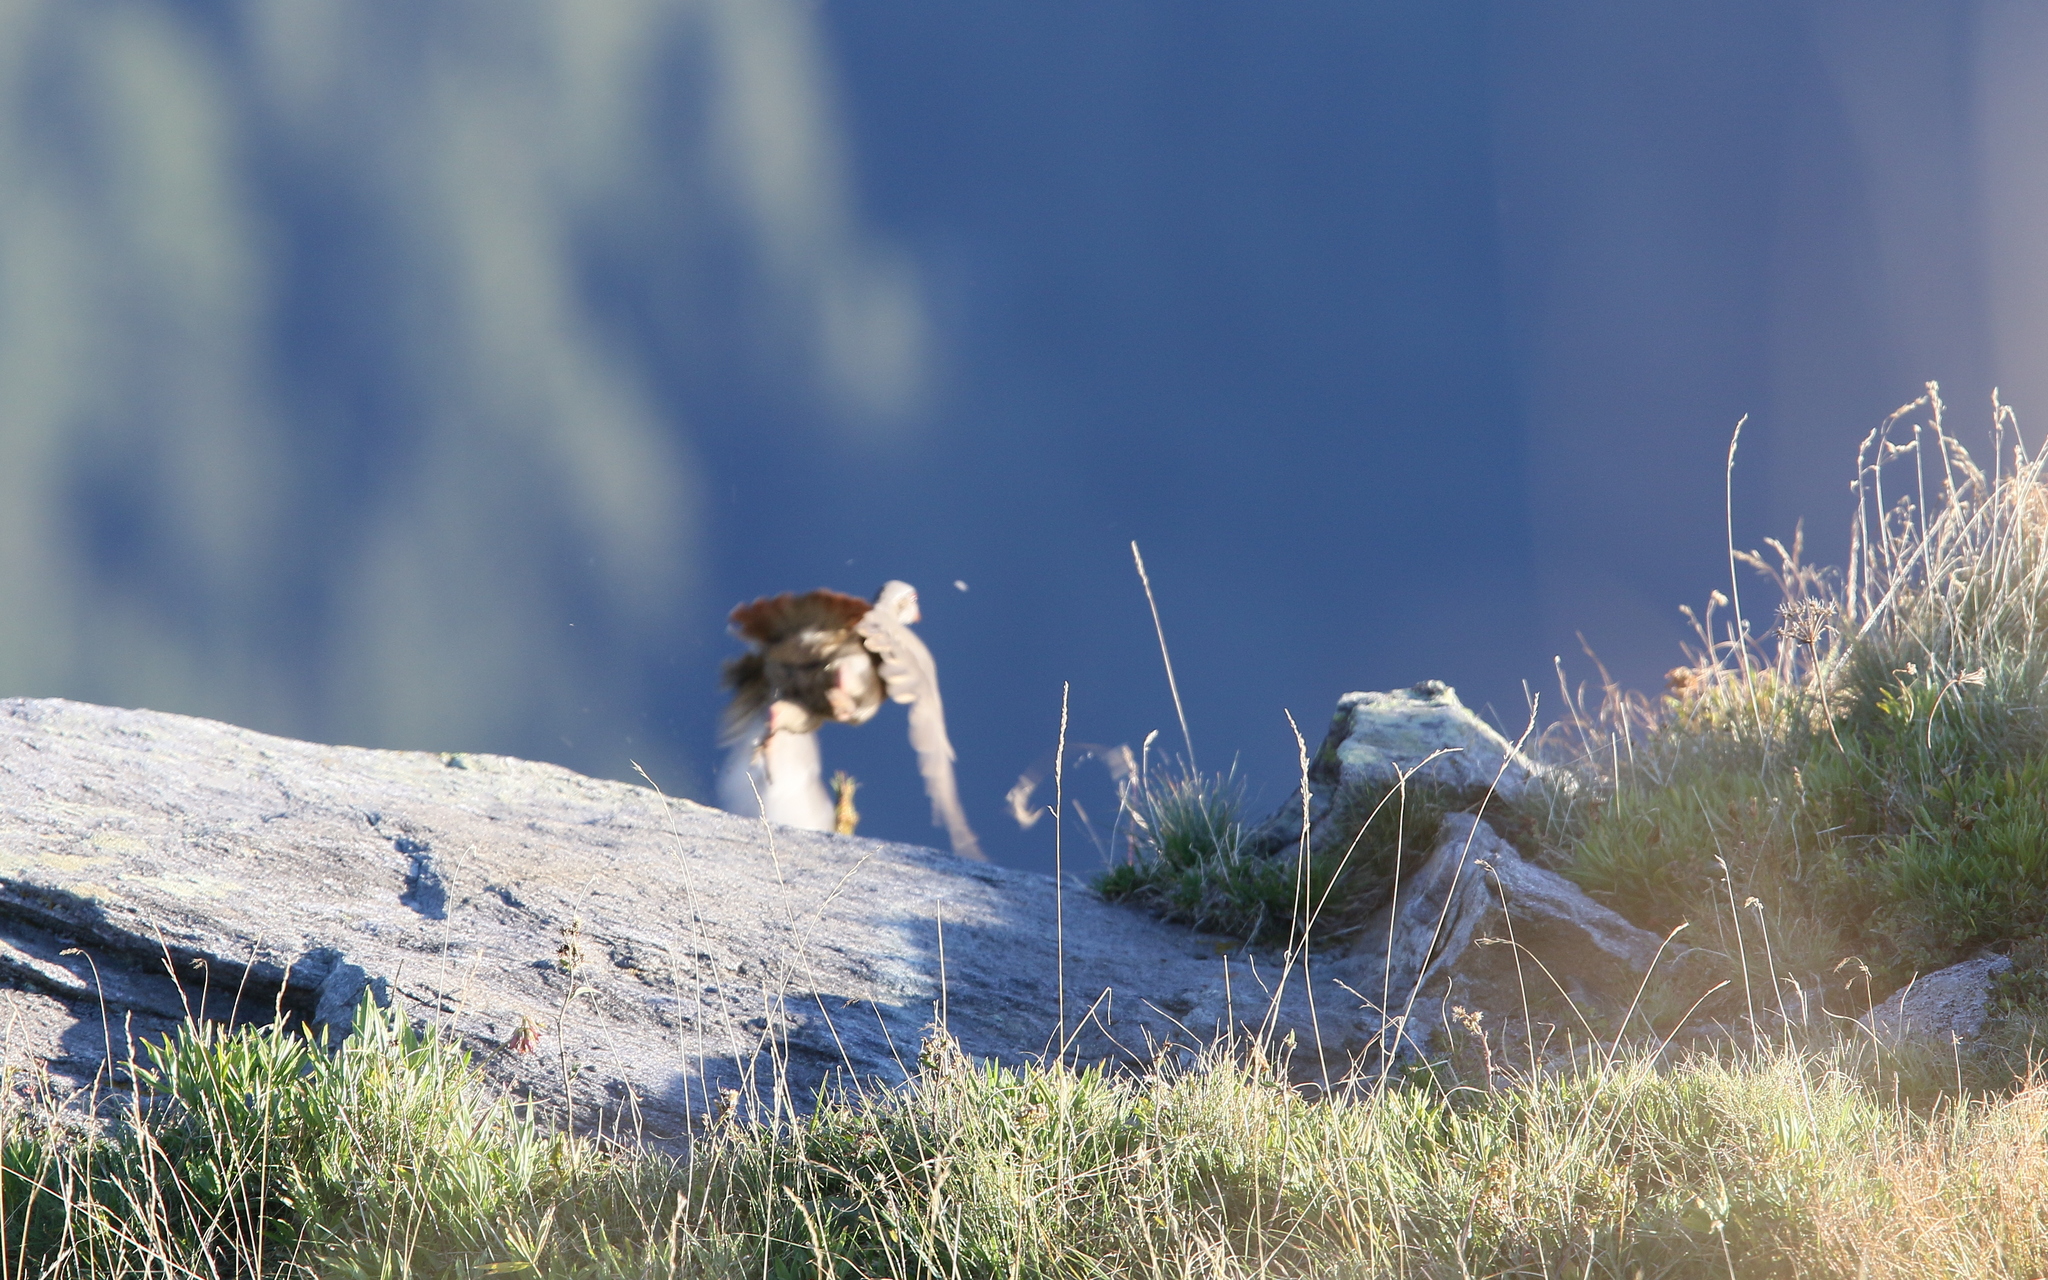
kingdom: Animalia
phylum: Chordata
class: Aves
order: Galliformes
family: Phasianidae
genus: Alectoris
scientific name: Alectoris graeca
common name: Rock partridge
